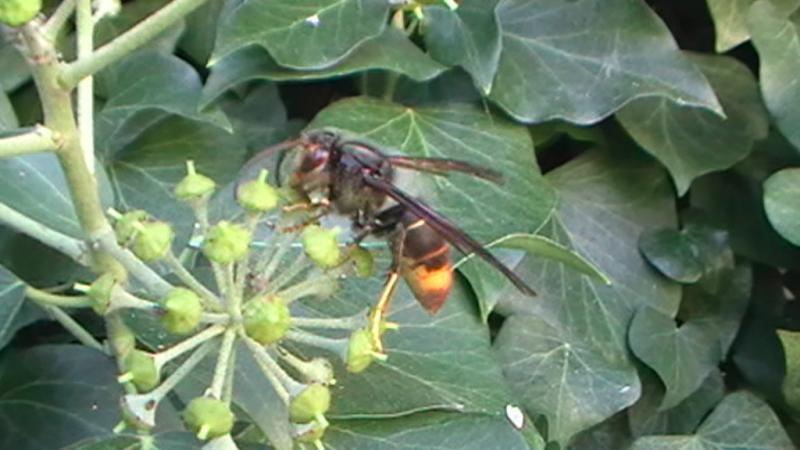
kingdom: Animalia
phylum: Arthropoda
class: Insecta
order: Hymenoptera
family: Vespidae
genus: Vespa
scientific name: Vespa velutina
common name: Asian hornet
